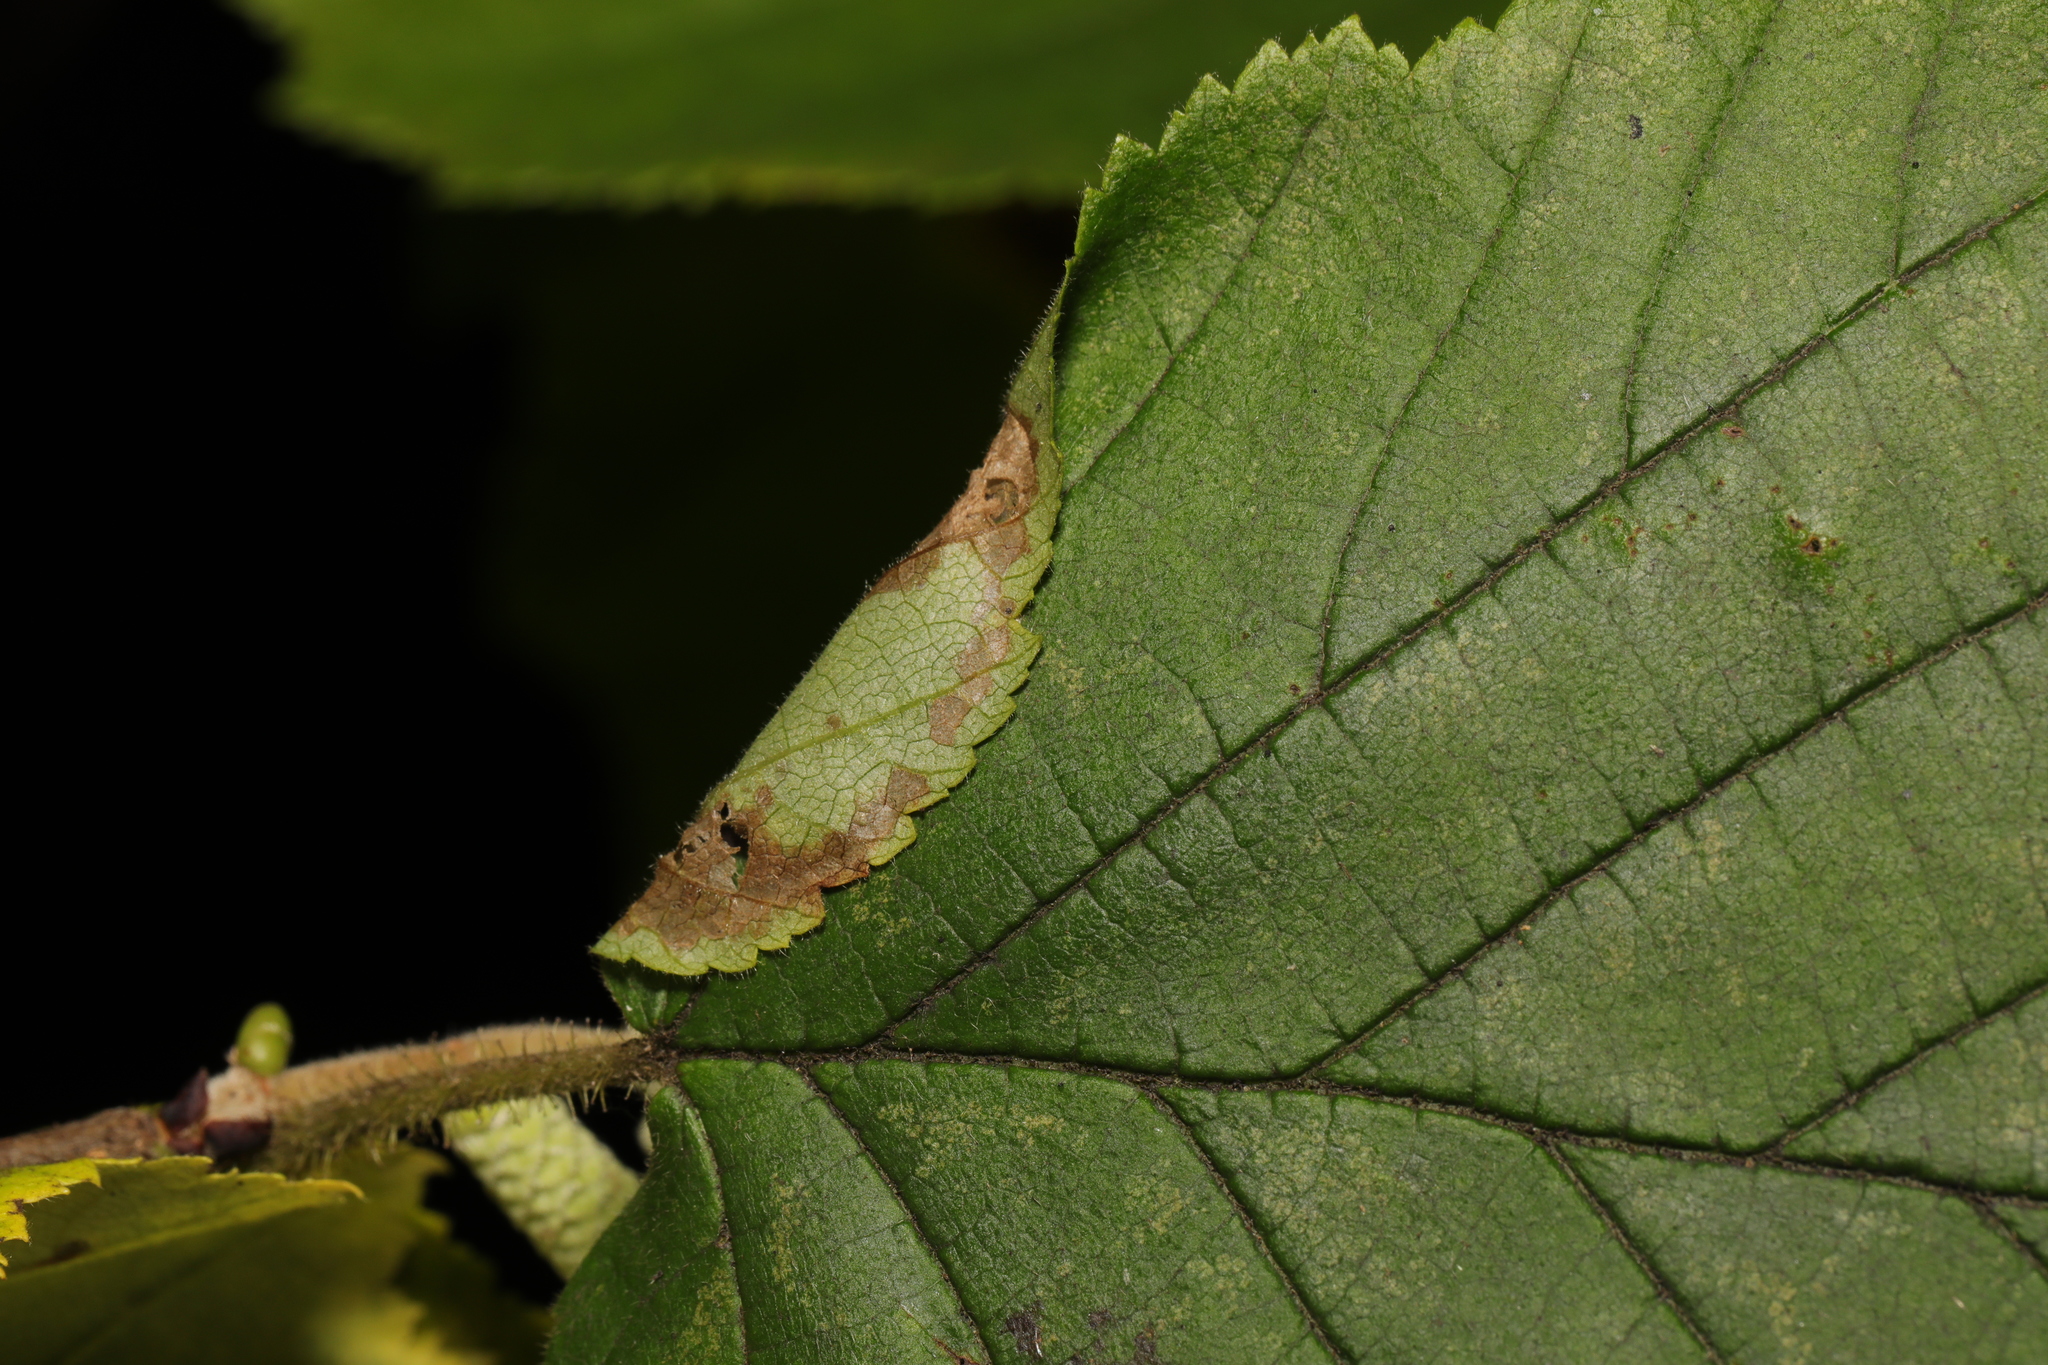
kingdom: Animalia
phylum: Arthropoda
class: Insecta
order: Lepidoptera
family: Gracillariidae
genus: Parornix
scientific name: Parornix devoniella
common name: Hazel slender
